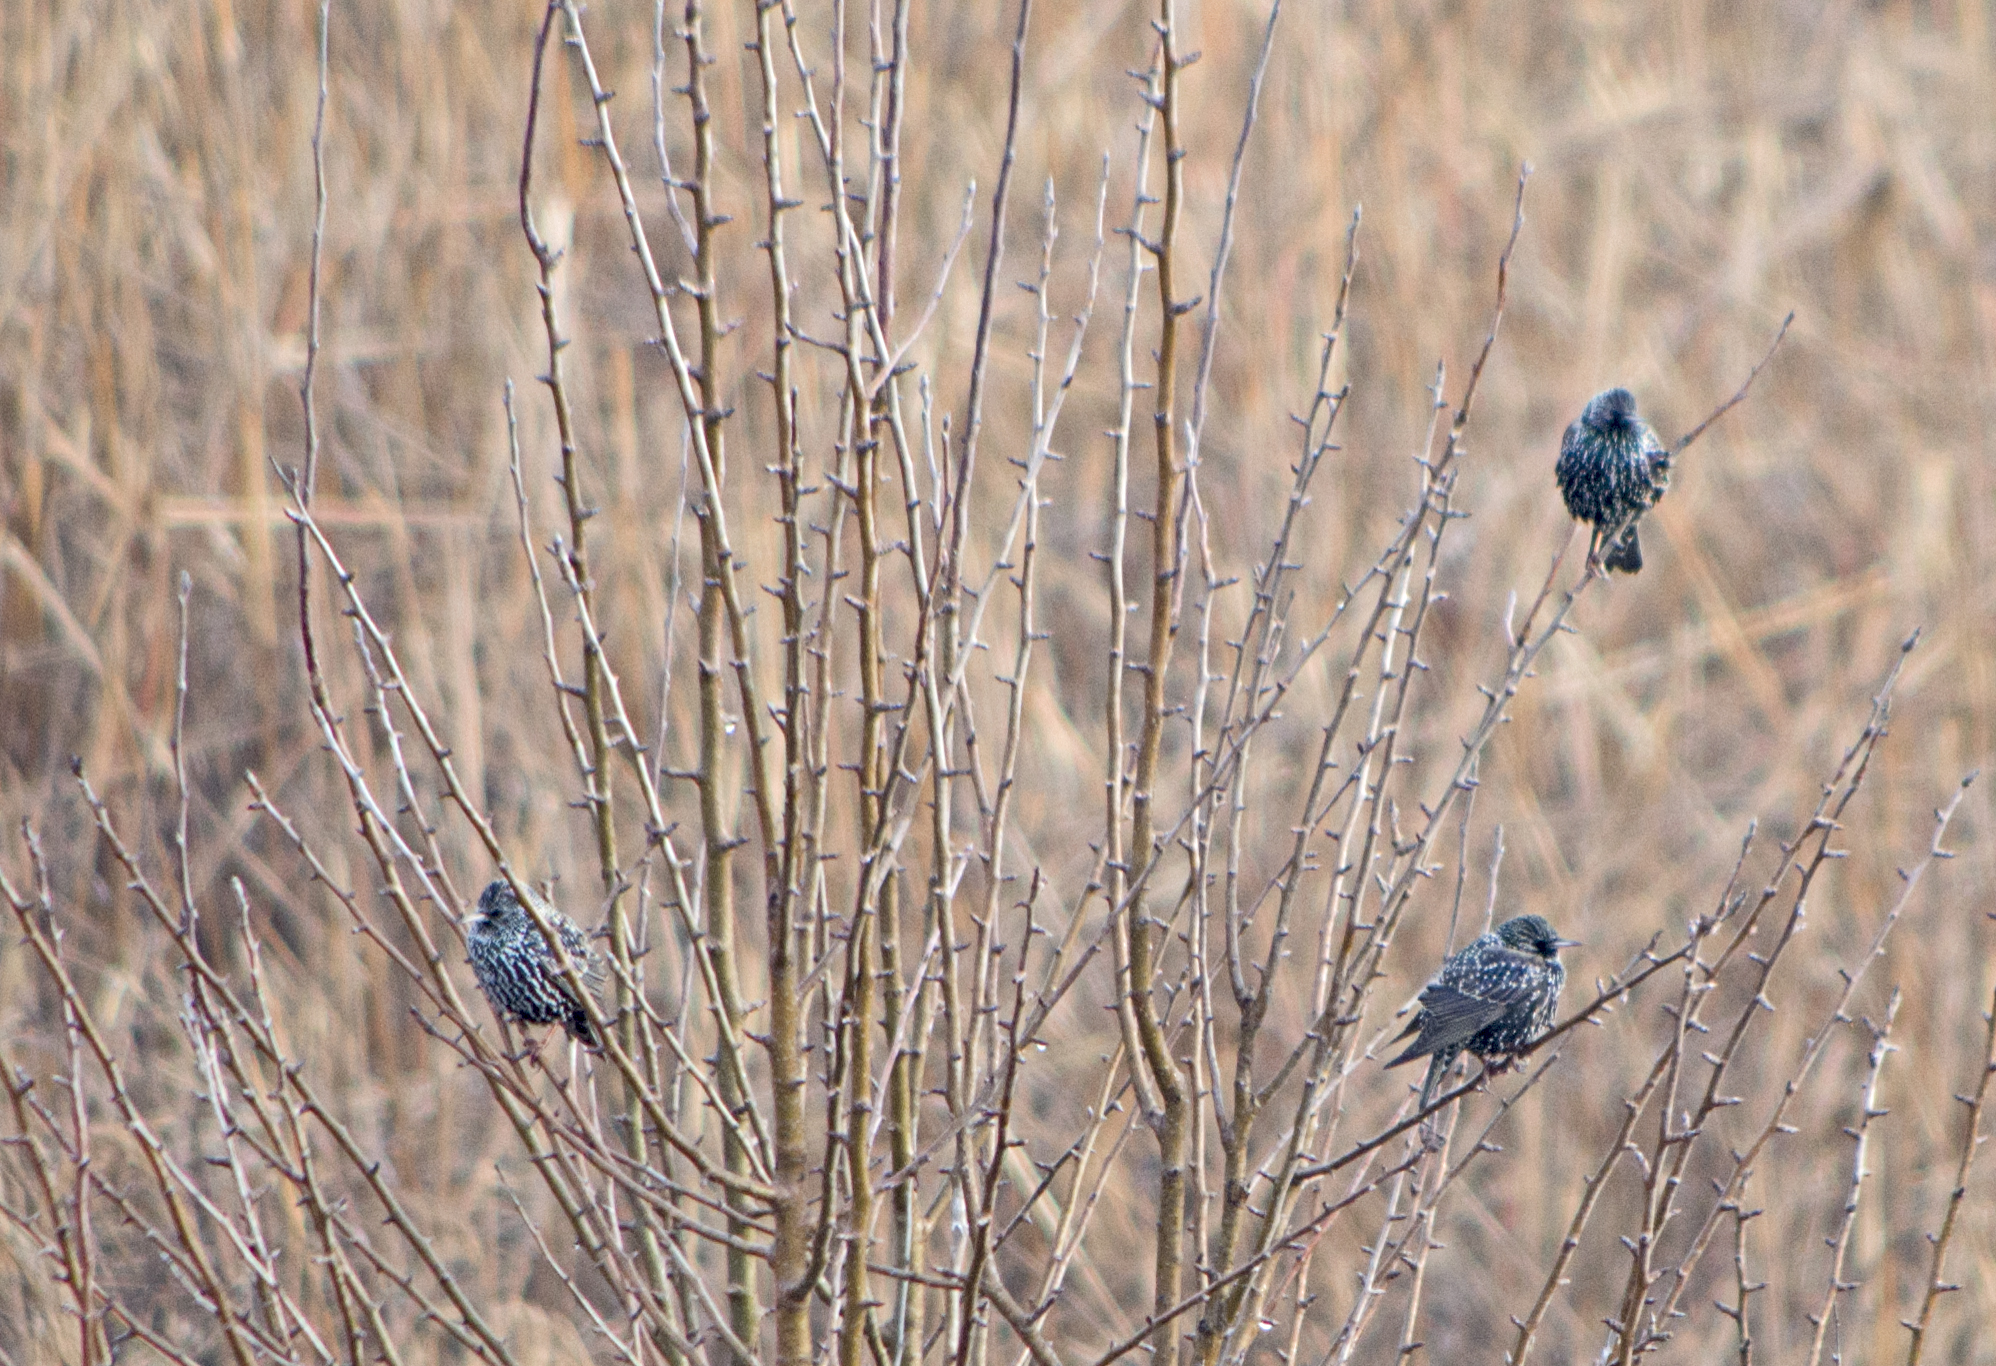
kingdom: Animalia
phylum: Chordata
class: Aves
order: Passeriformes
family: Sturnidae
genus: Sturnus
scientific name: Sturnus vulgaris
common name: Common starling
